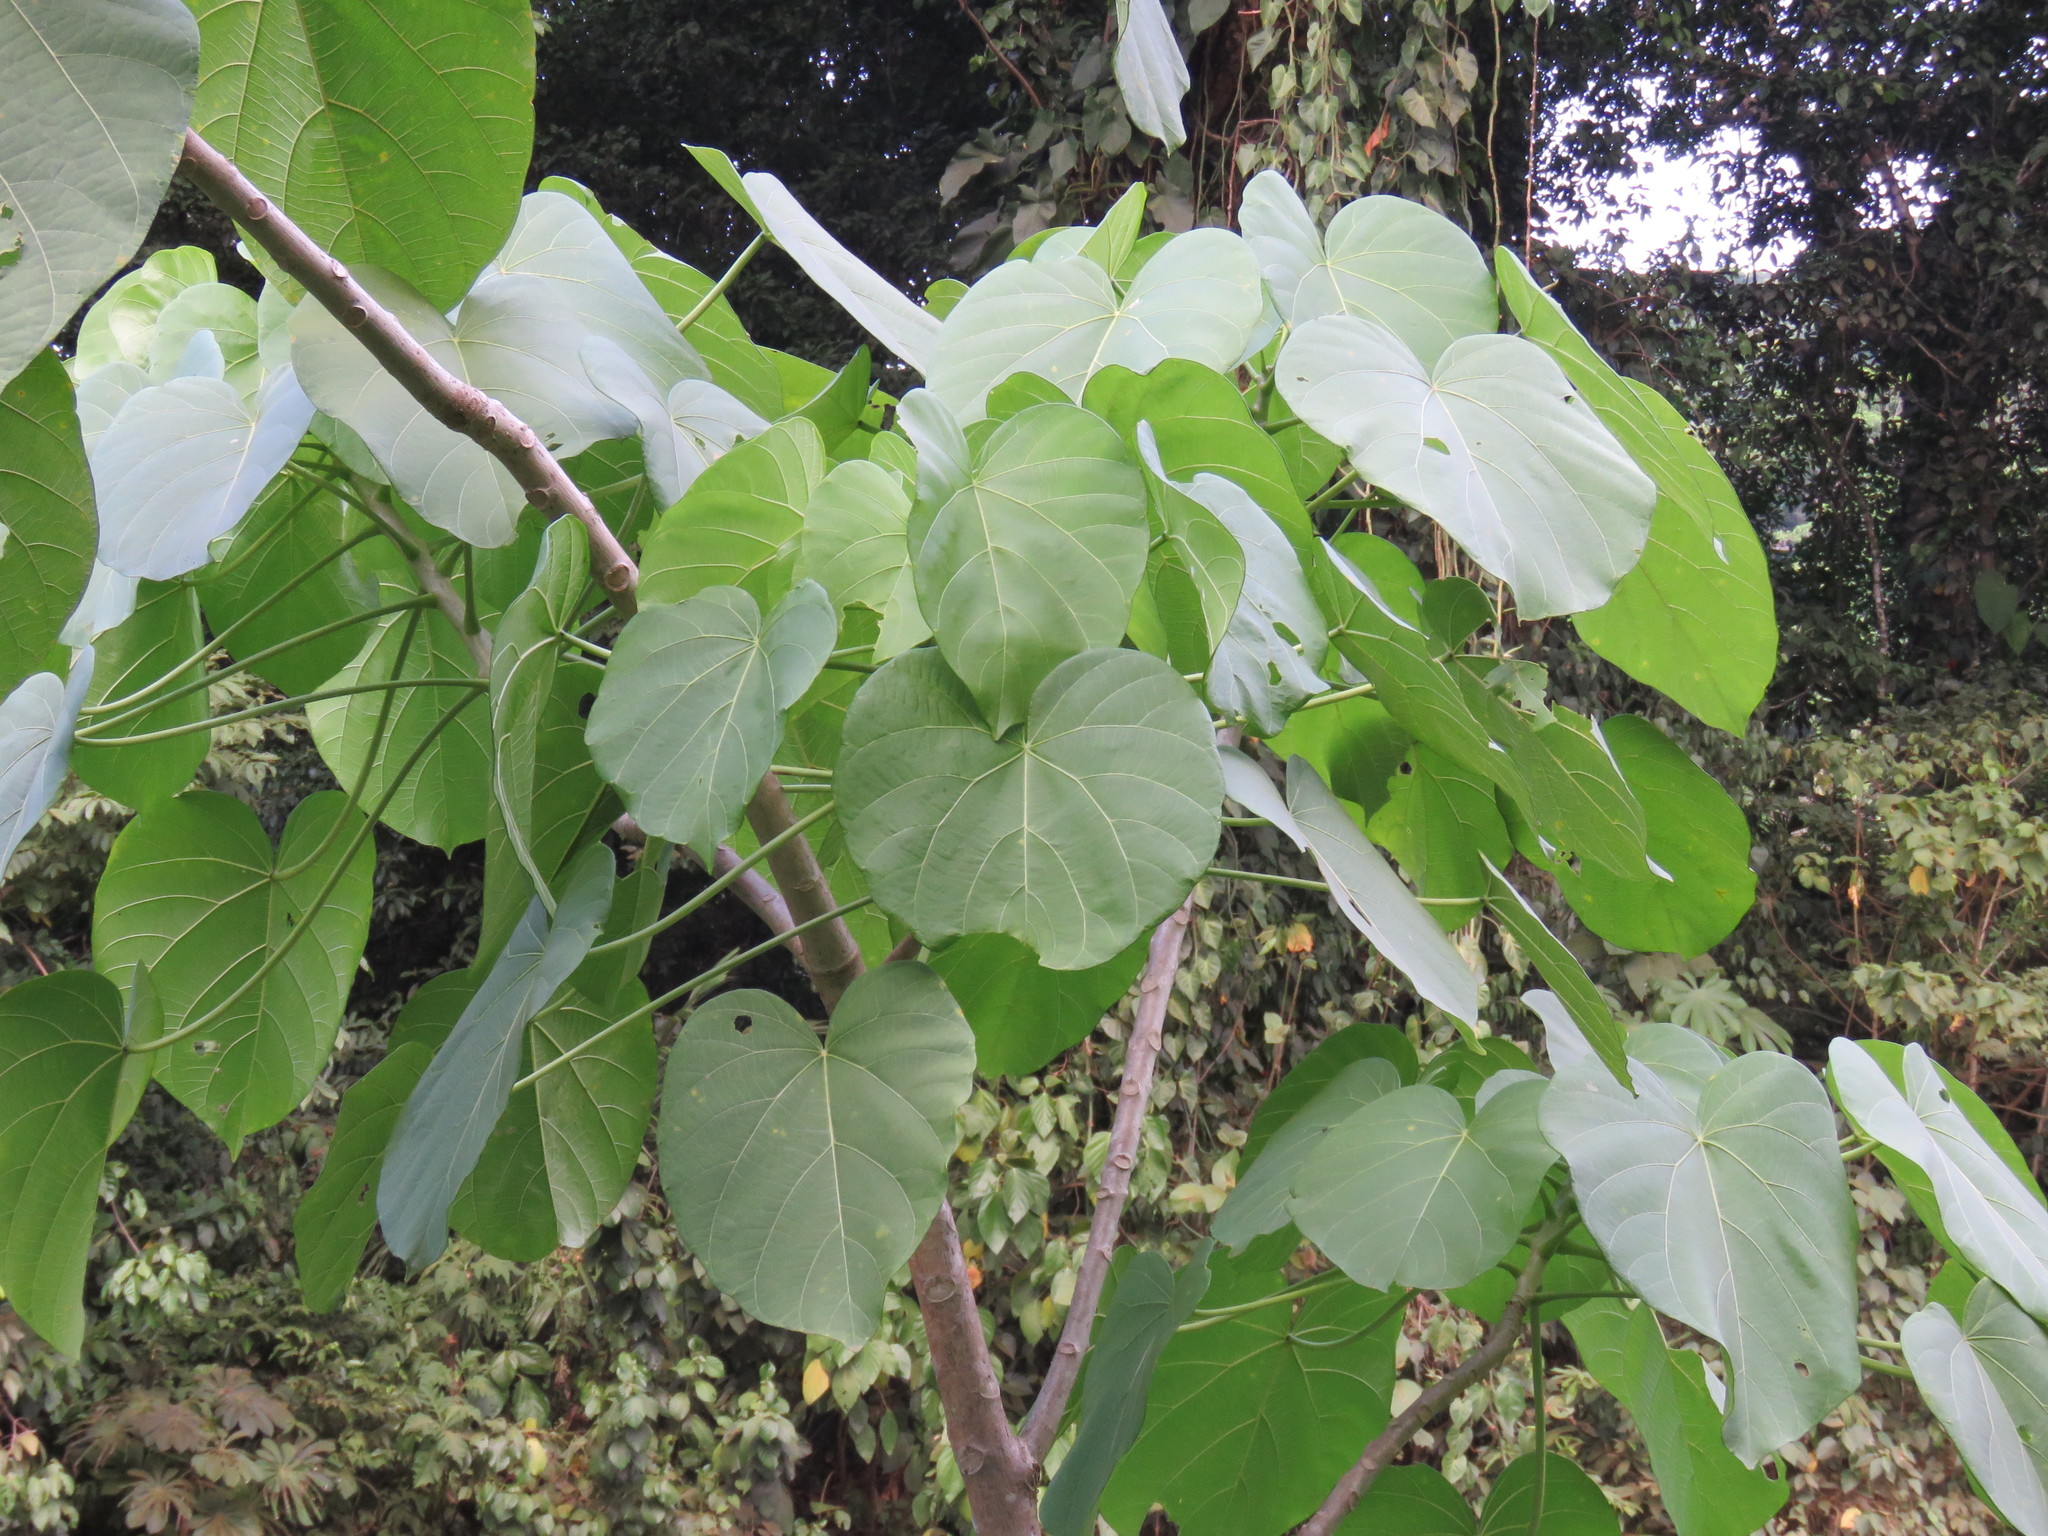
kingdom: Plantae
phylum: Tracheophyta
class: Magnoliopsida
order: Malpighiales
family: Euphorbiaceae
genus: Omphalea
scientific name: Omphalea oleifera
